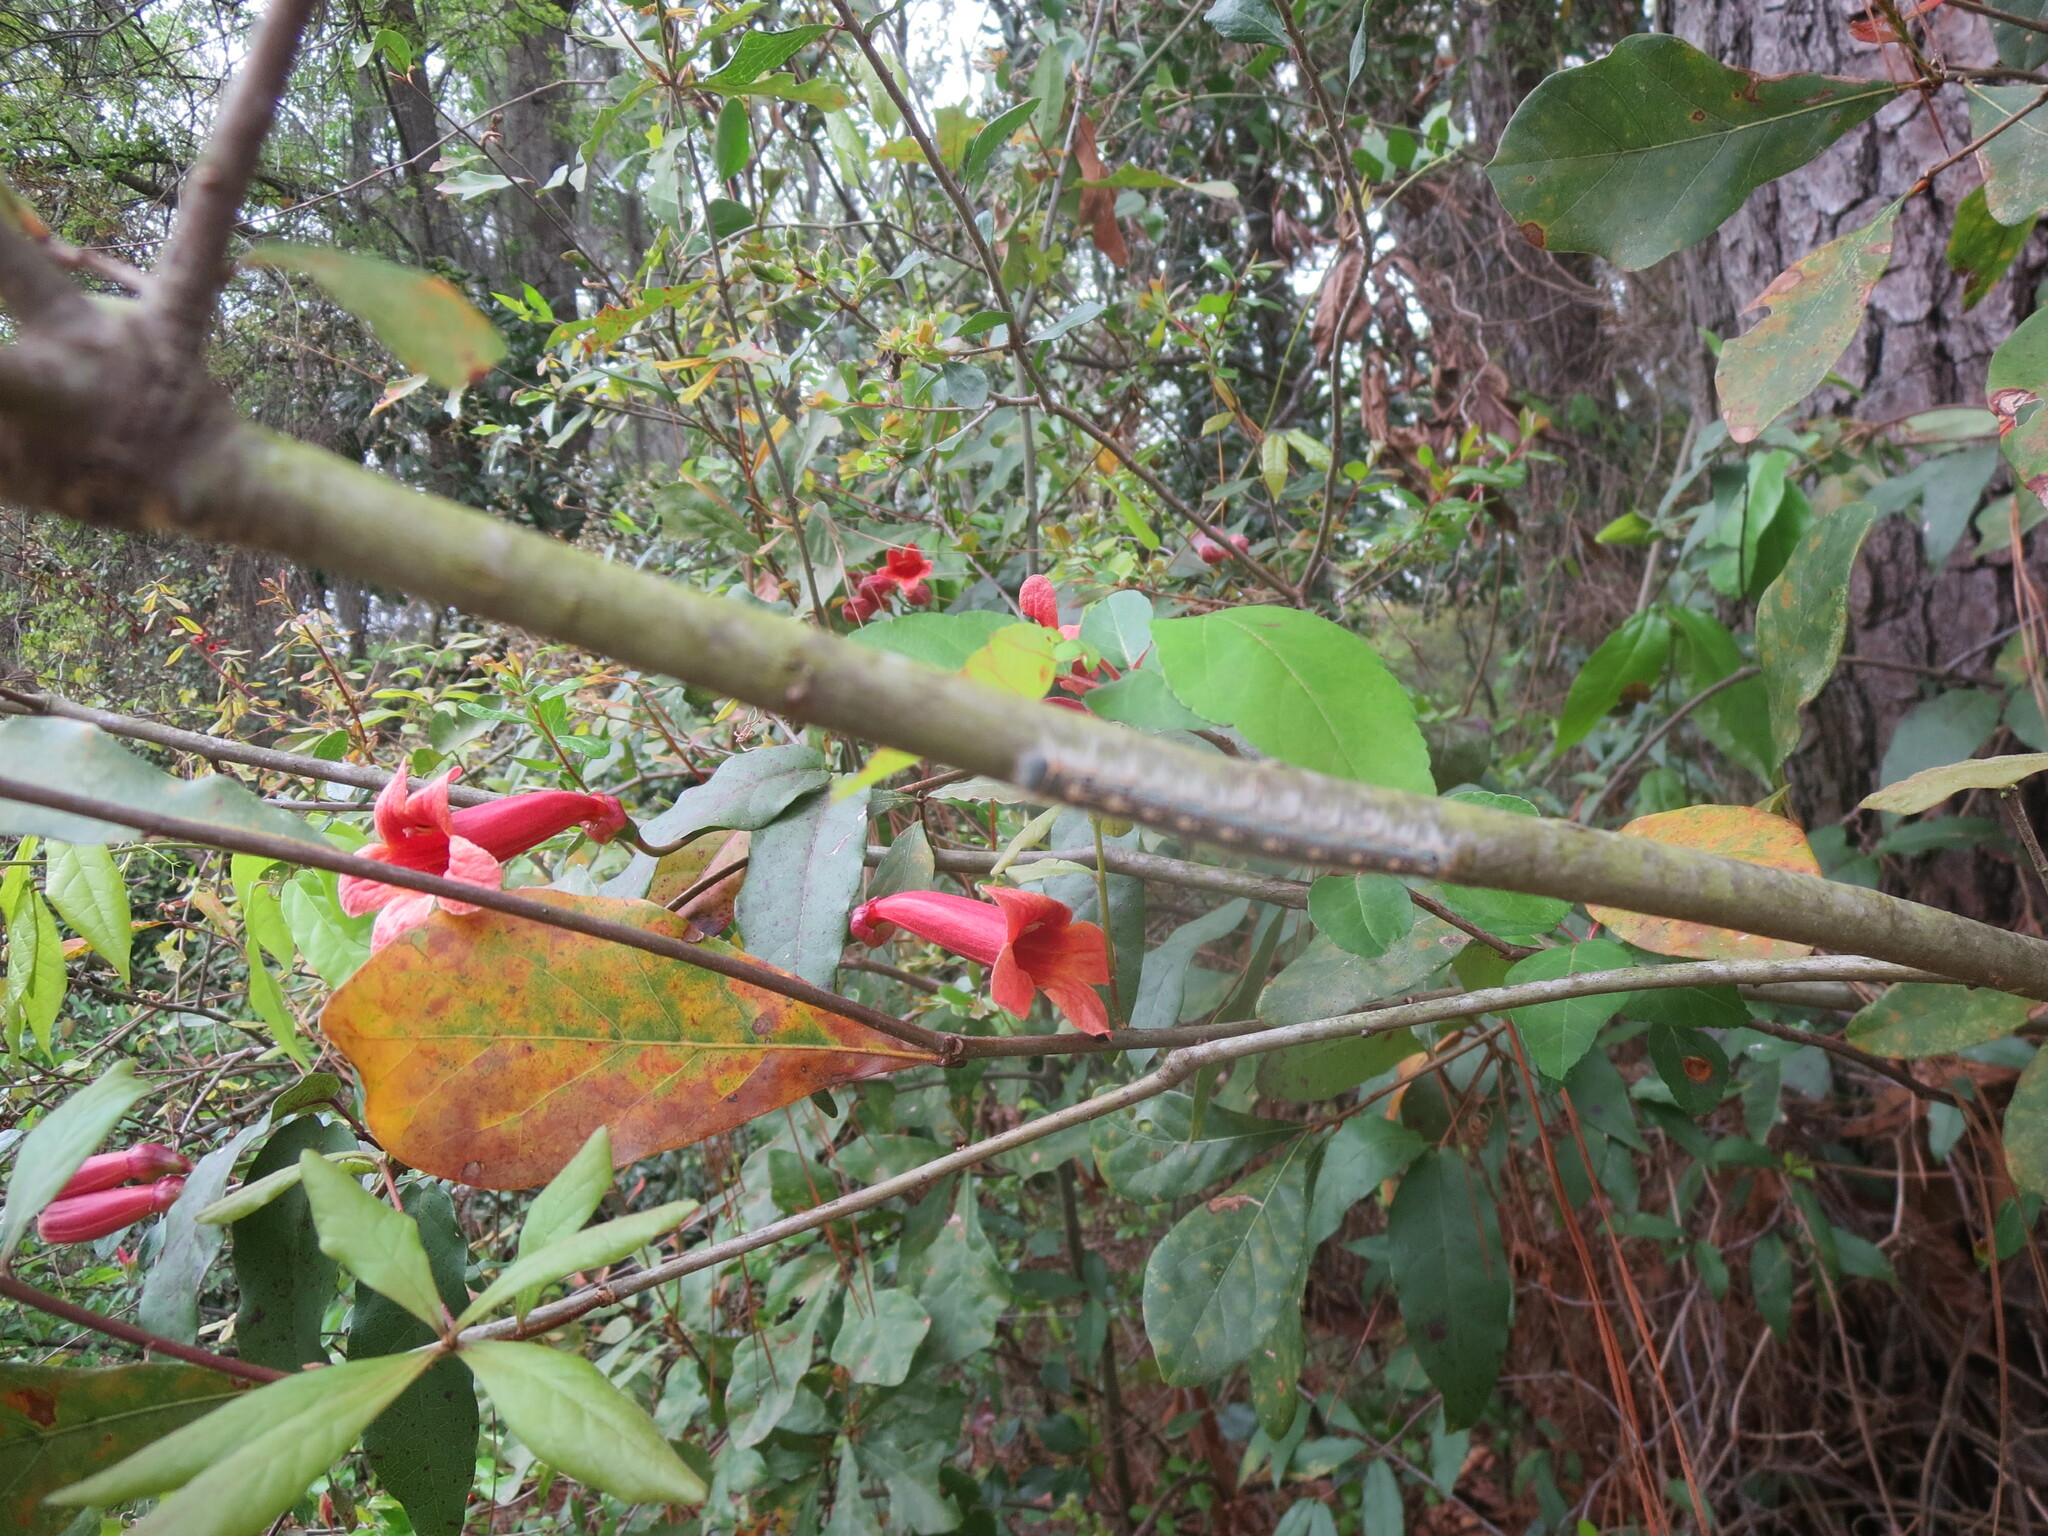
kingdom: Plantae
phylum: Tracheophyta
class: Magnoliopsida
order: Lamiales
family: Bignoniaceae
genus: Bignonia
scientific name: Bignonia capreolata
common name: Crossvine
